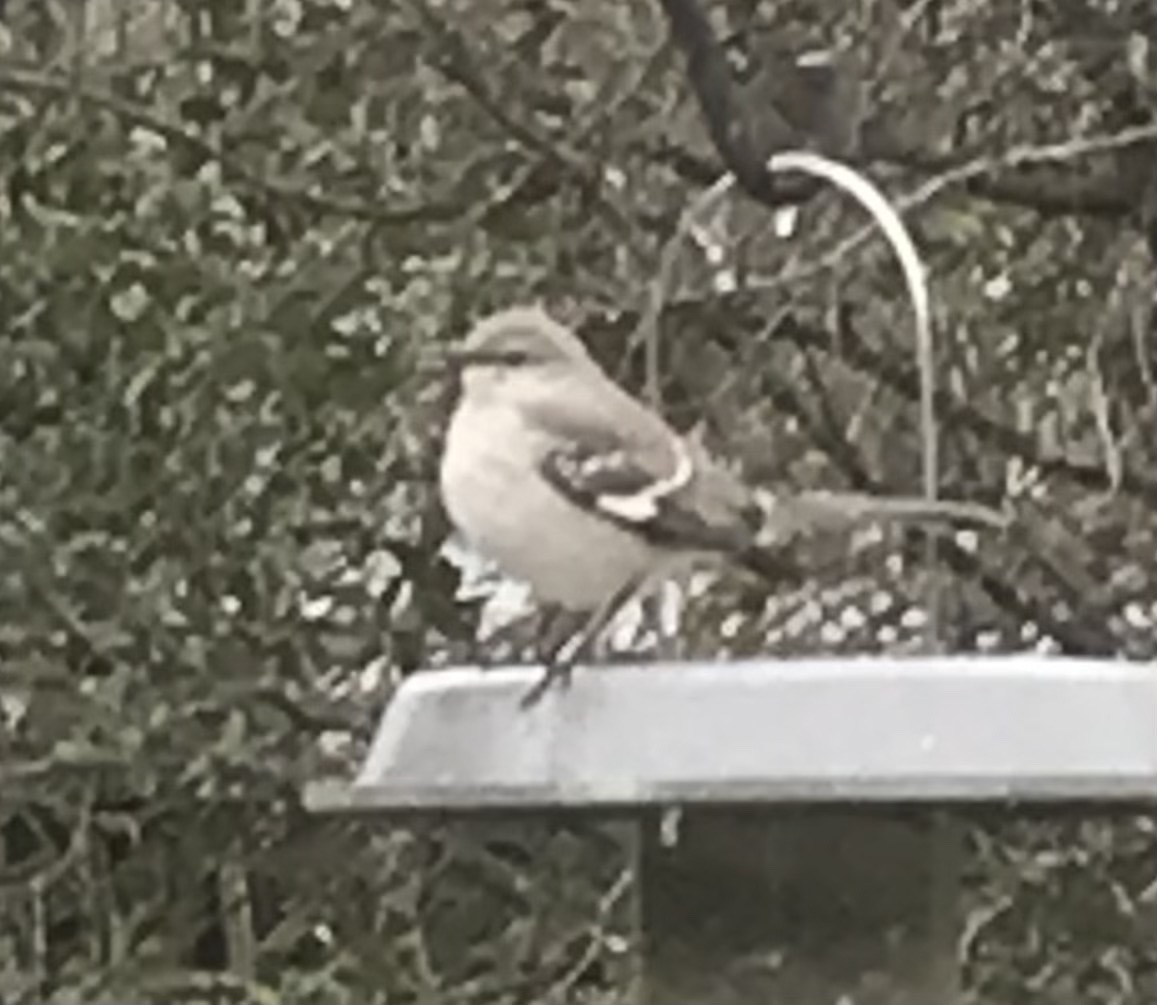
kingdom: Animalia
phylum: Chordata
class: Aves
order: Passeriformes
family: Mimidae
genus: Mimus
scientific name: Mimus polyglottos
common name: Northern mockingbird
